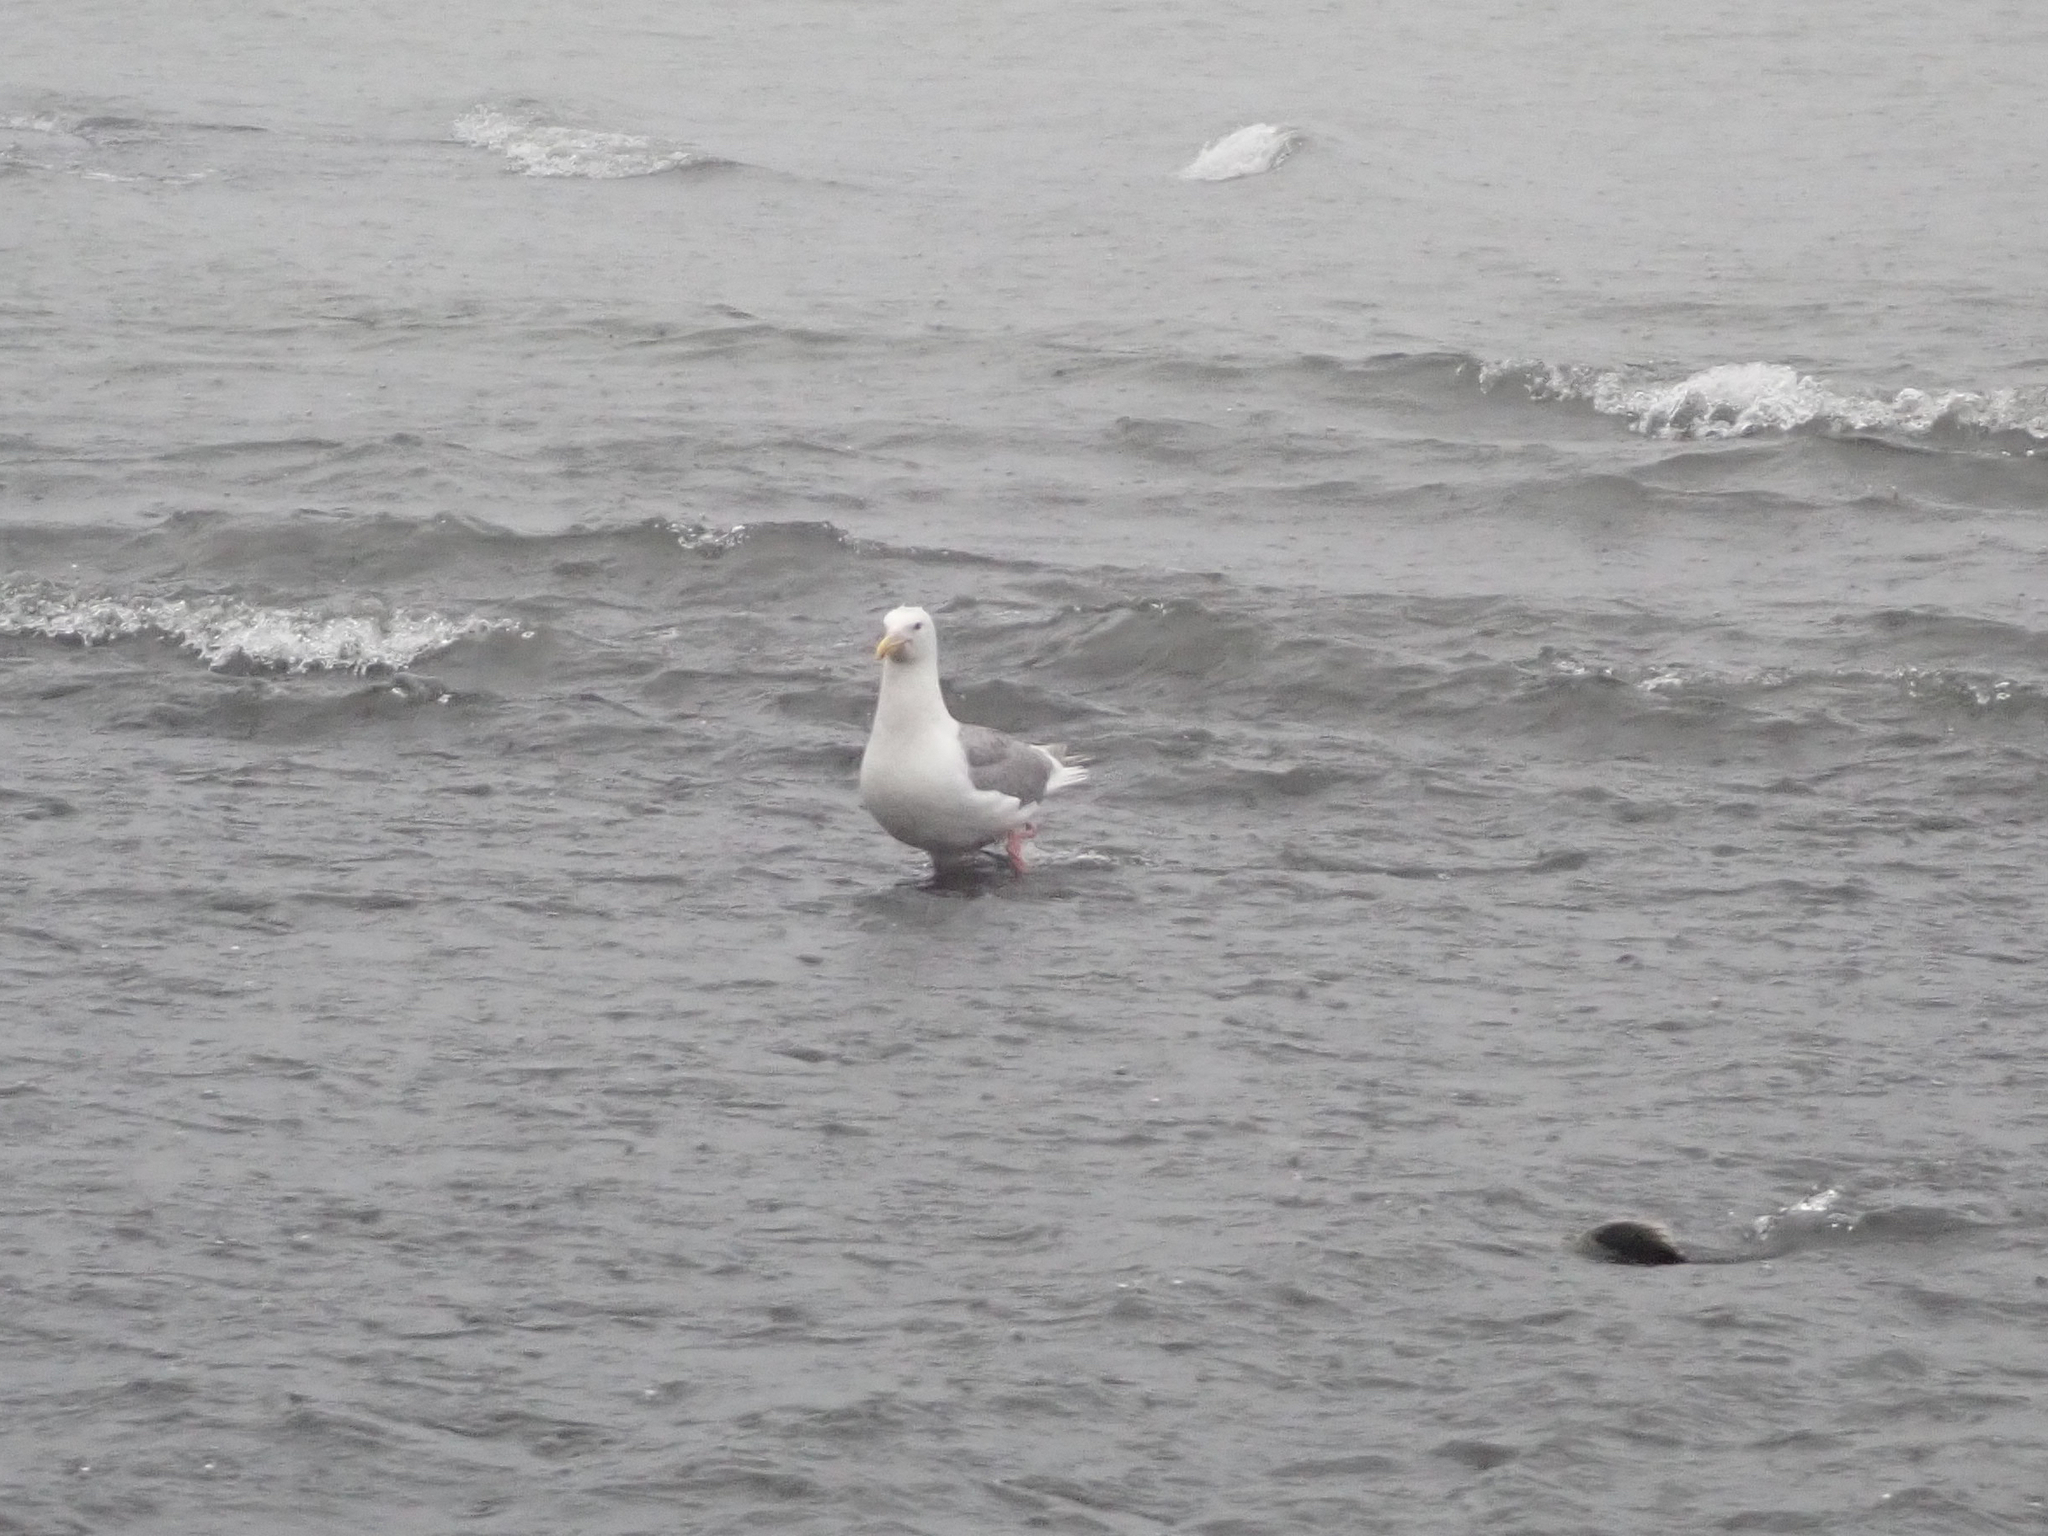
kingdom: Animalia
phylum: Chordata
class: Aves
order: Charadriiformes
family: Laridae
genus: Larus
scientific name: Larus glaucescens
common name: Glaucous-winged gull
